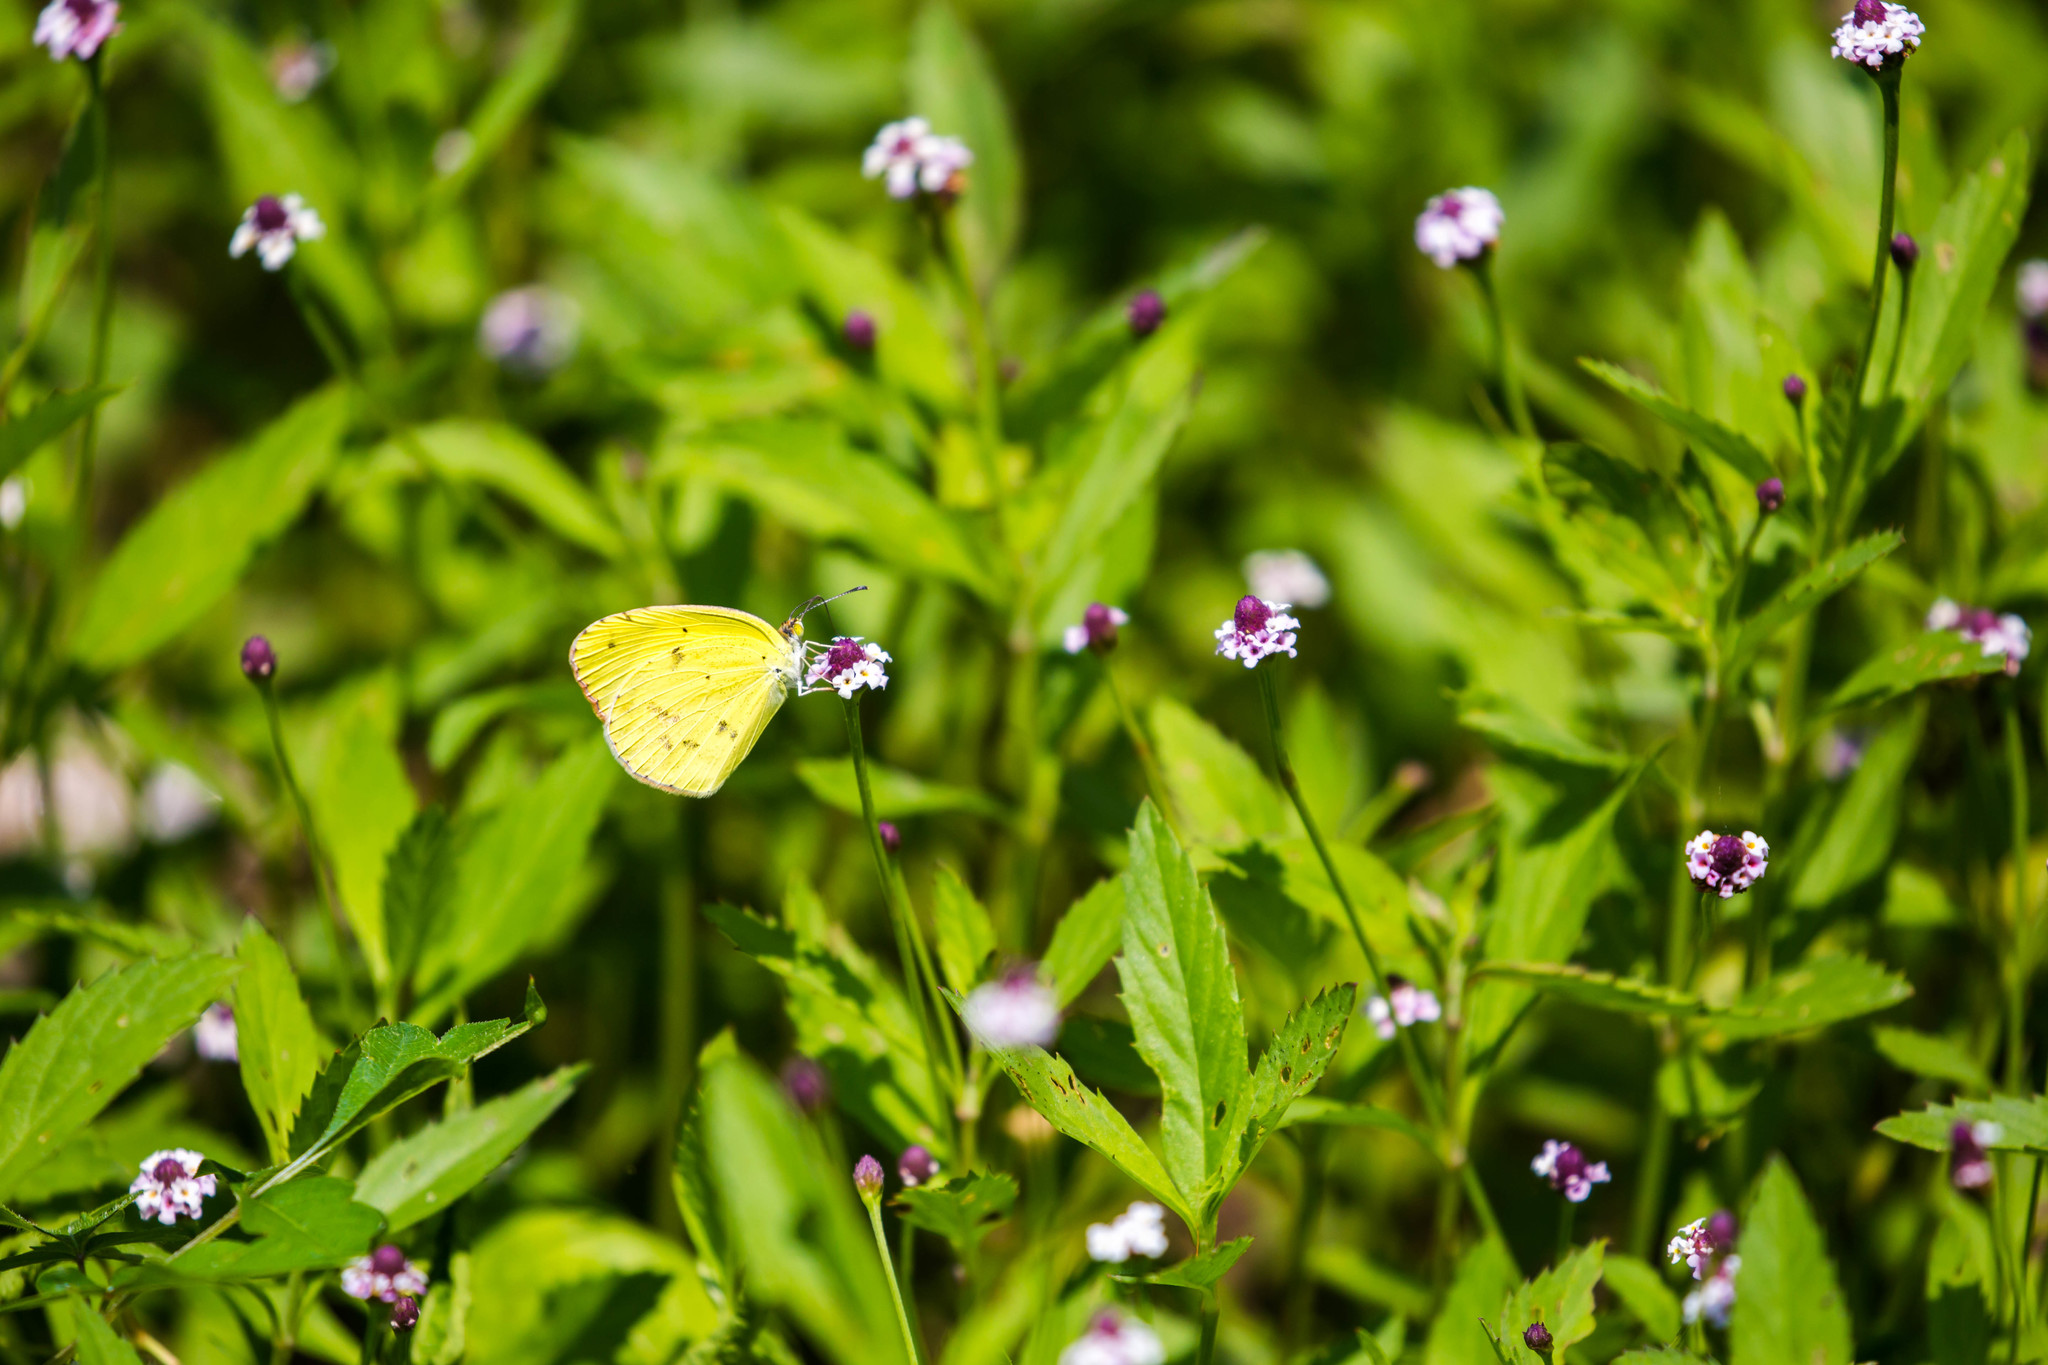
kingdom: Animalia
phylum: Arthropoda
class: Insecta
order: Lepidoptera
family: Pieridae
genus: Pyrisitia
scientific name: Pyrisitia lisa
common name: Little yellow
